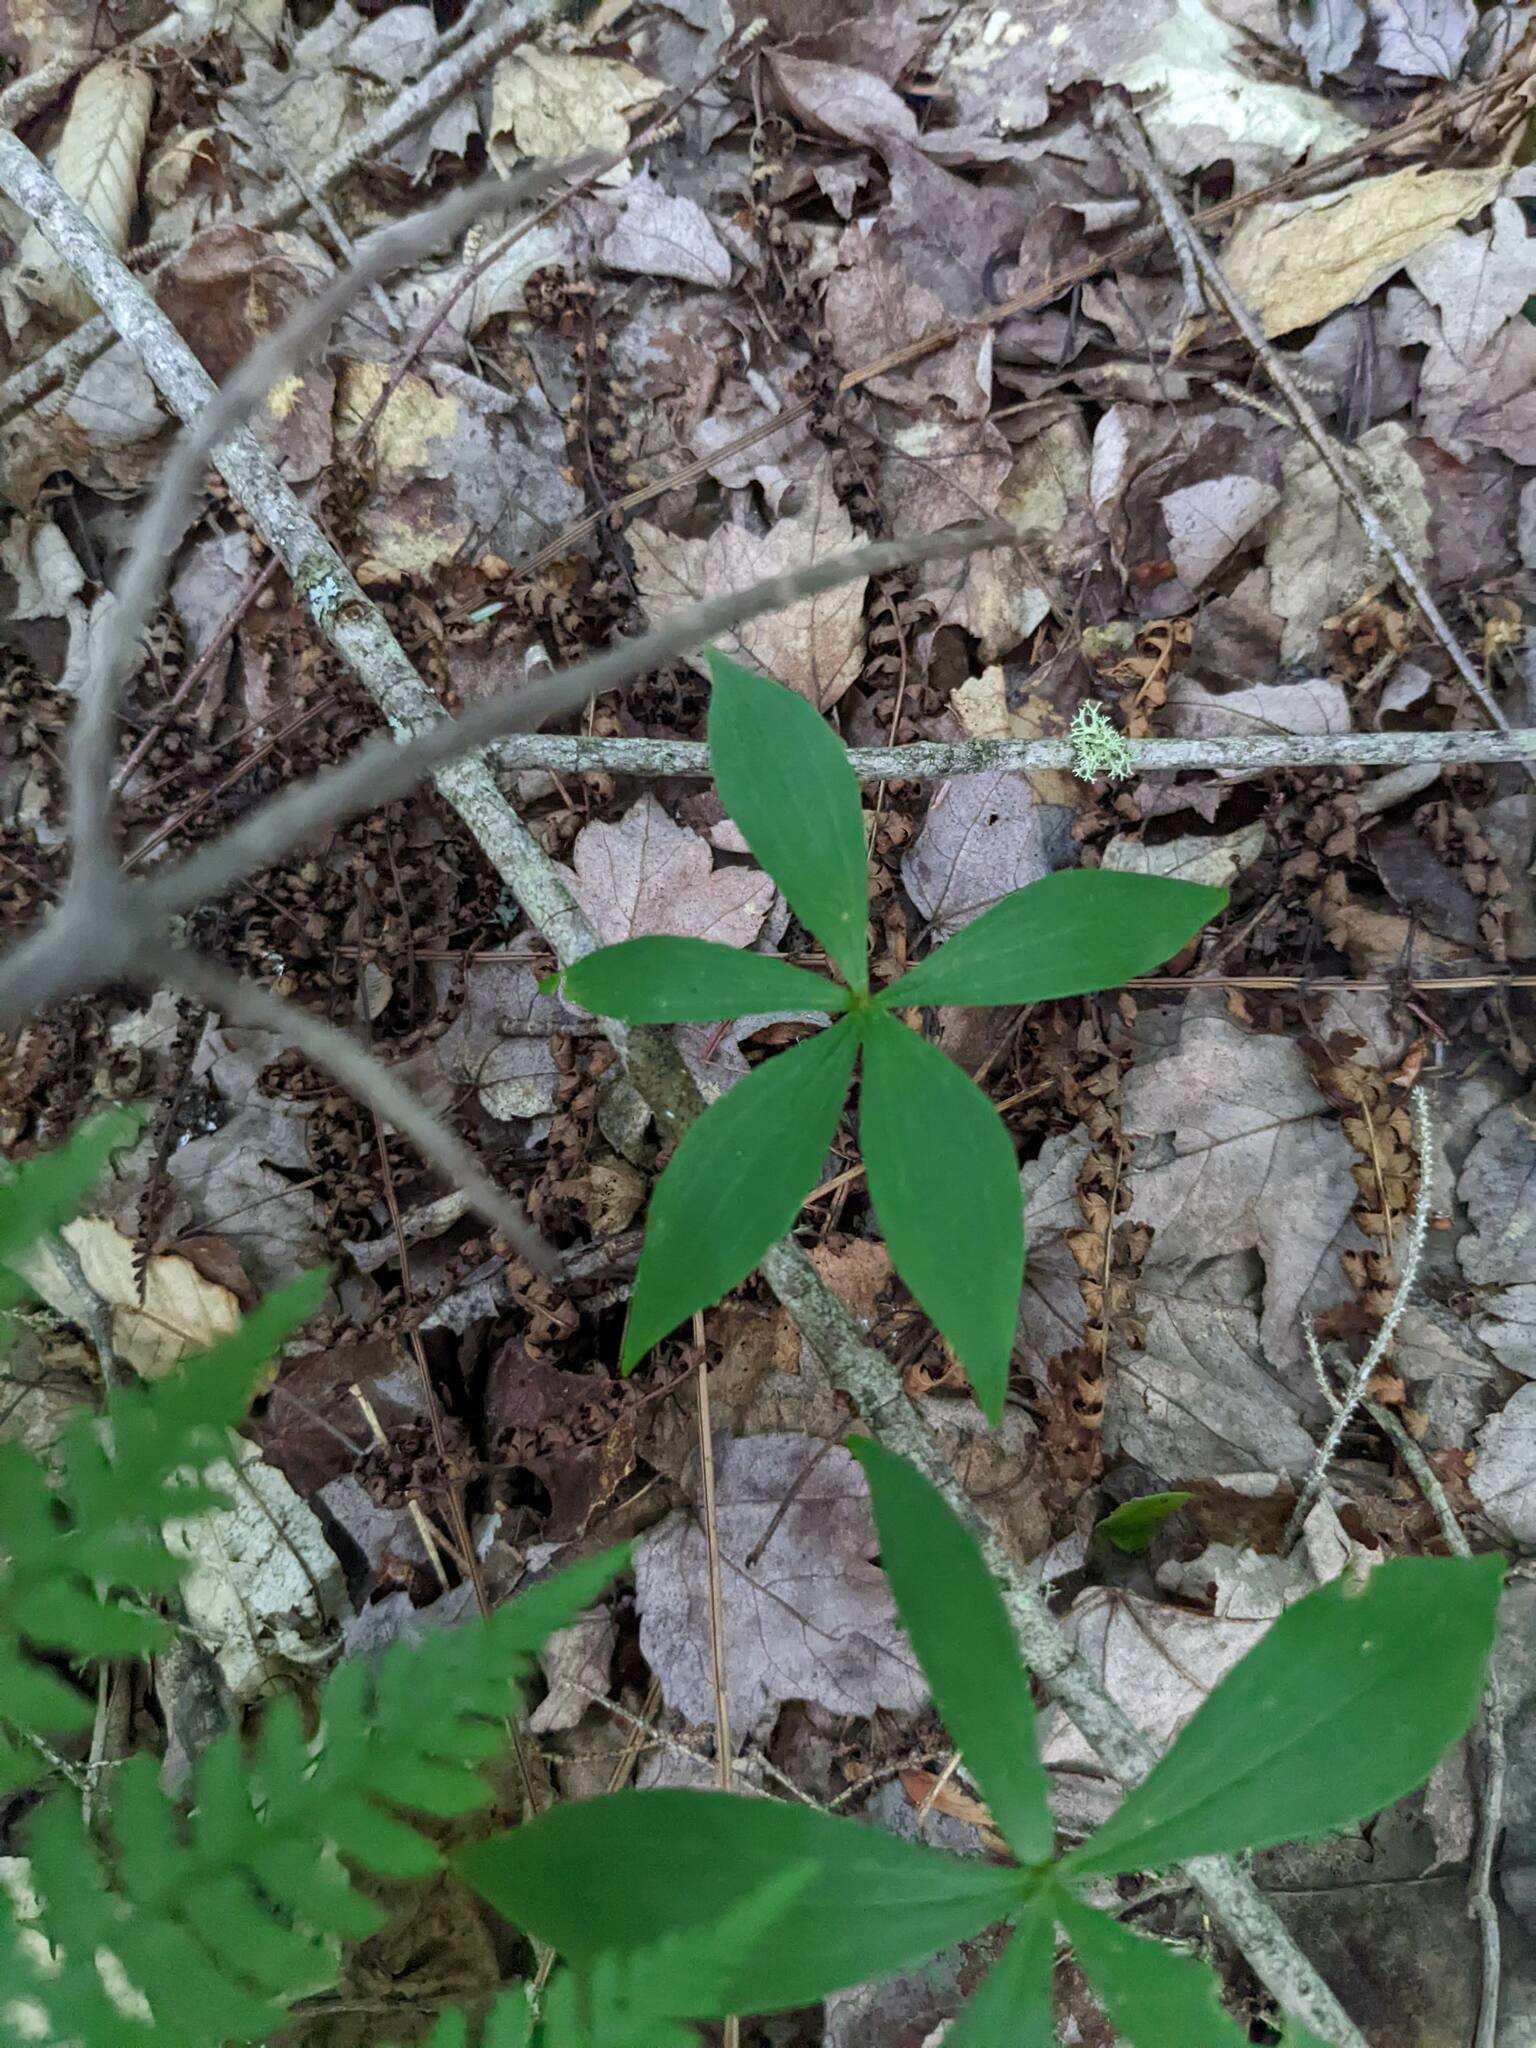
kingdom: Plantae
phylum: Tracheophyta
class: Liliopsida
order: Liliales
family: Liliaceae
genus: Medeola
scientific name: Medeola virginiana
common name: Indian cucumber-root
